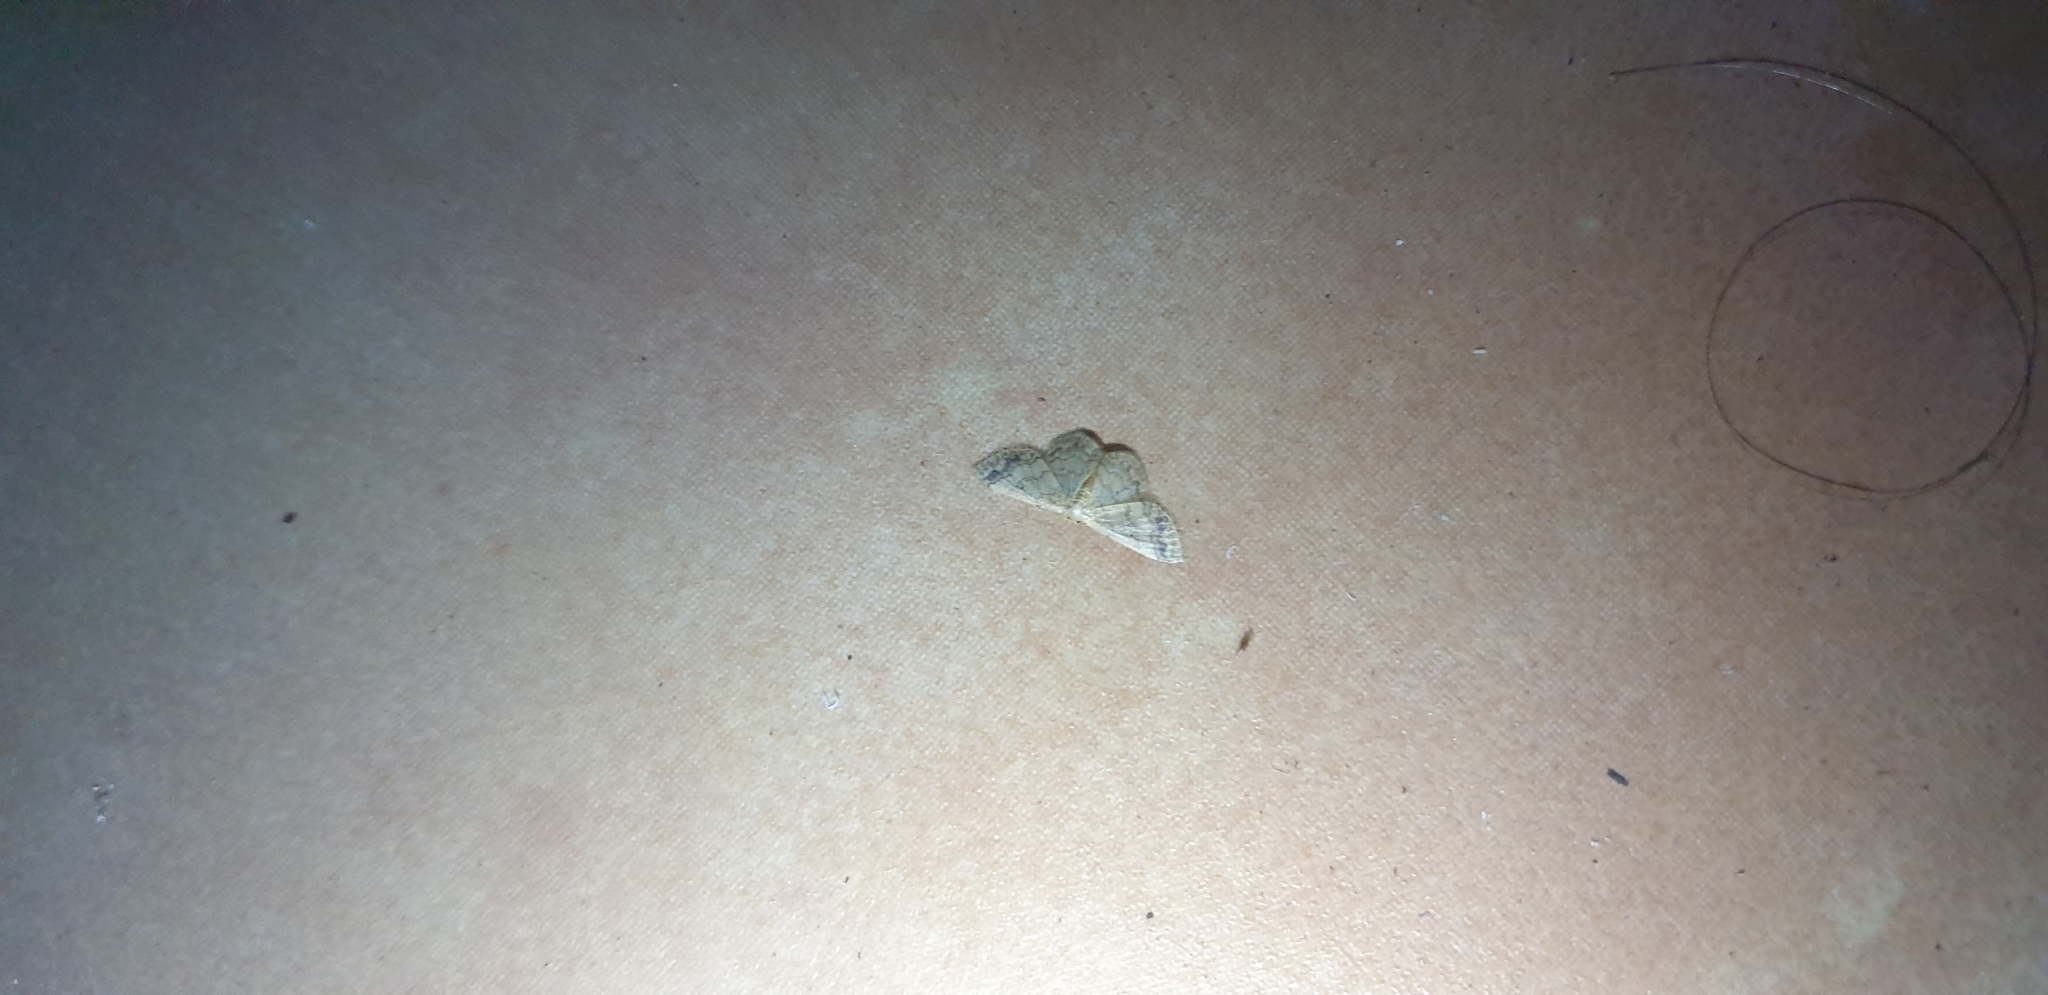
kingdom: Animalia
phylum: Arthropoda
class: Insecta
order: Lepidoptera
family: Geometridae
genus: Idaea
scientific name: Idaea pilosata
